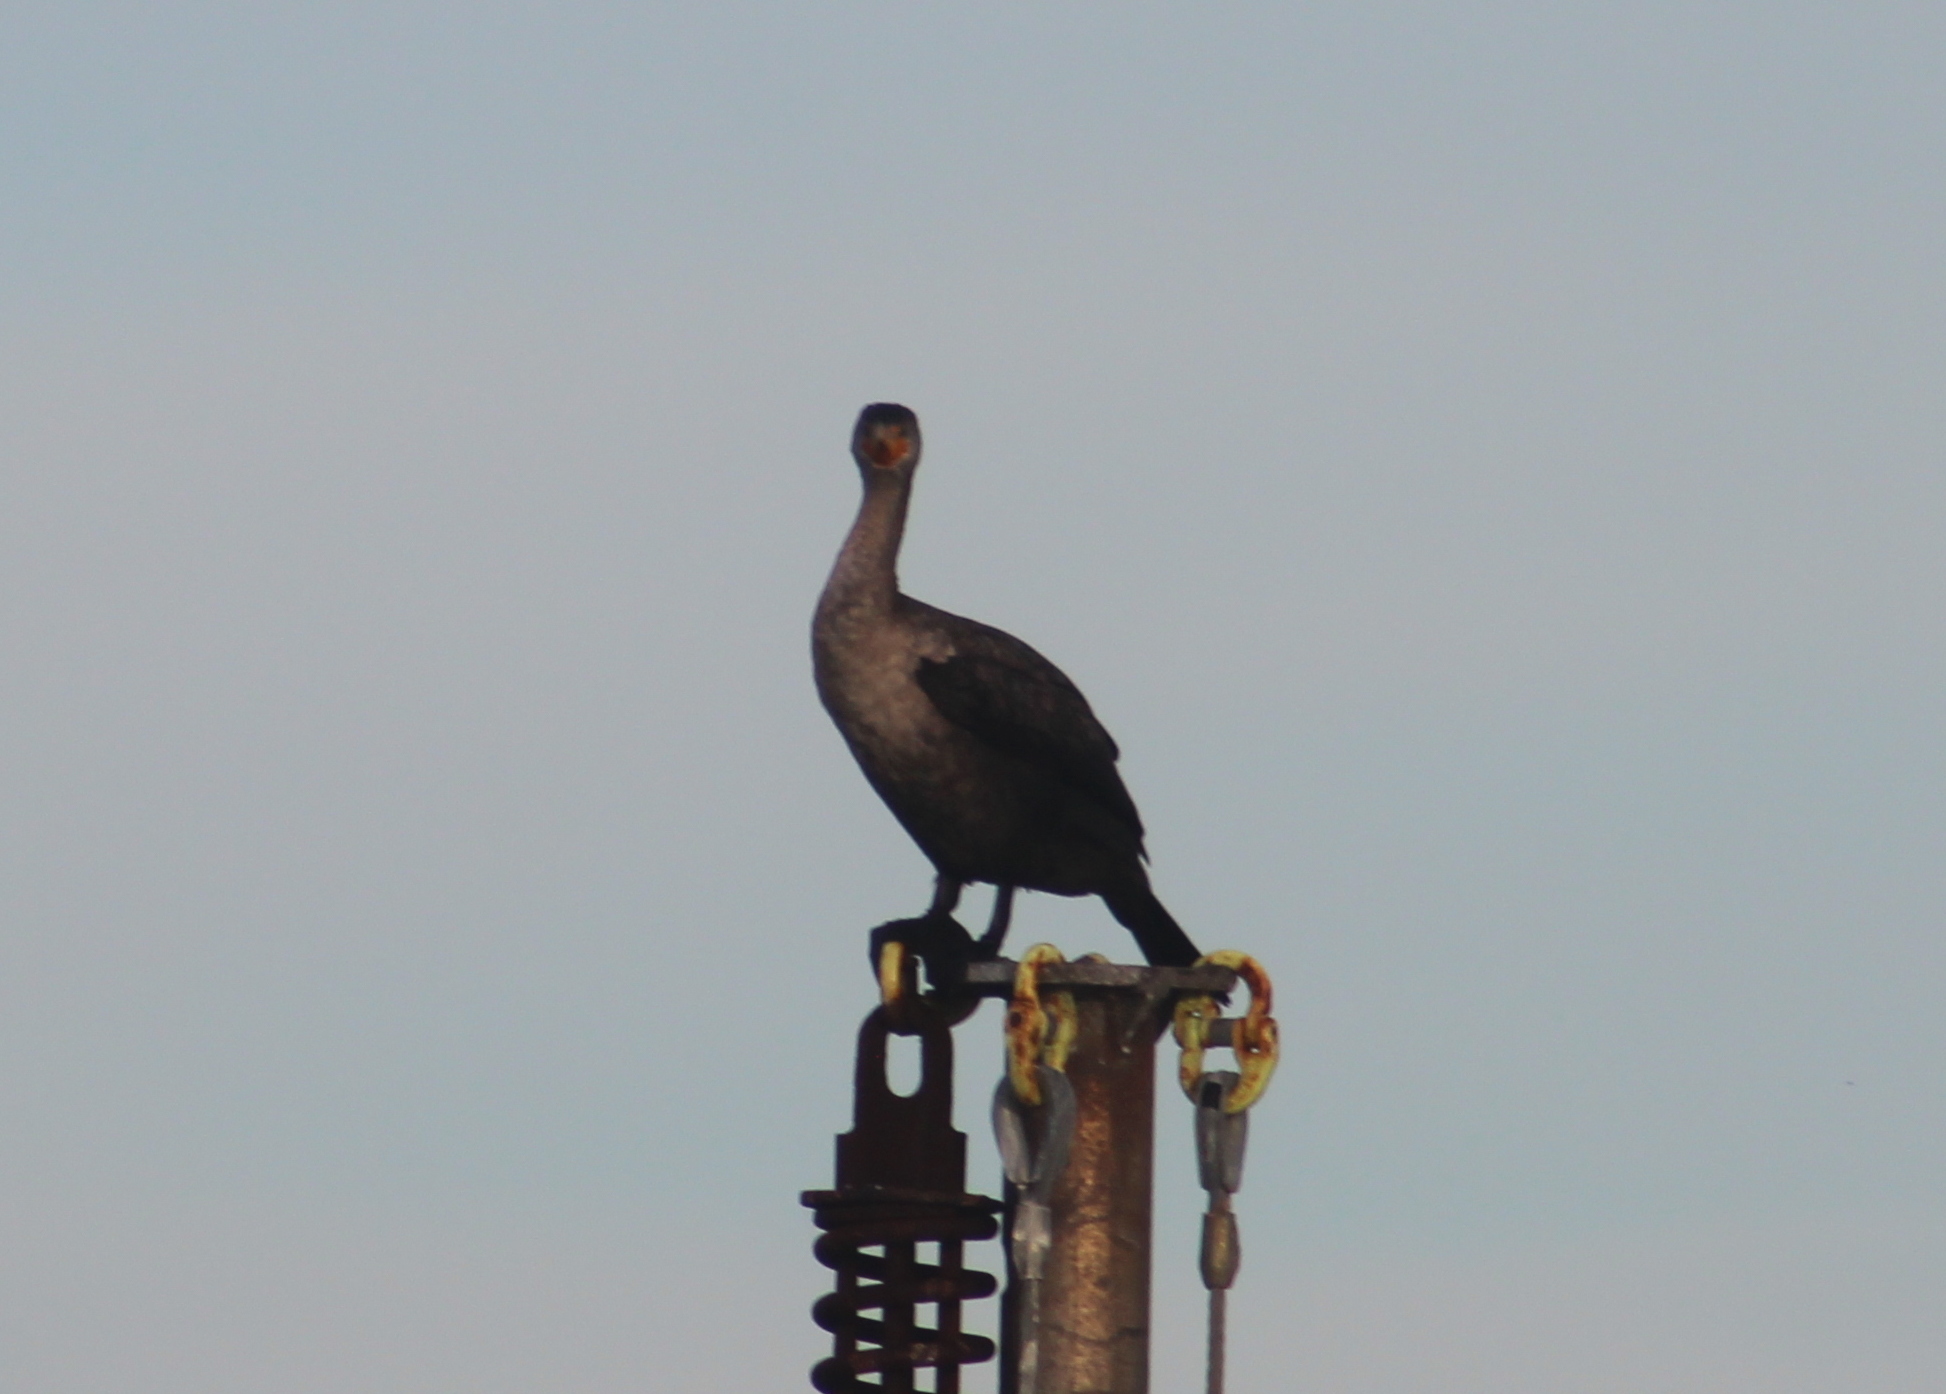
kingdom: Animalia
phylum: Chordata
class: Aves
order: Suliformes
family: Phalacrocoracidae
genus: Phalacrocorax
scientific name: Phalacrocorax auritus
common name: Double-crested cormorant
